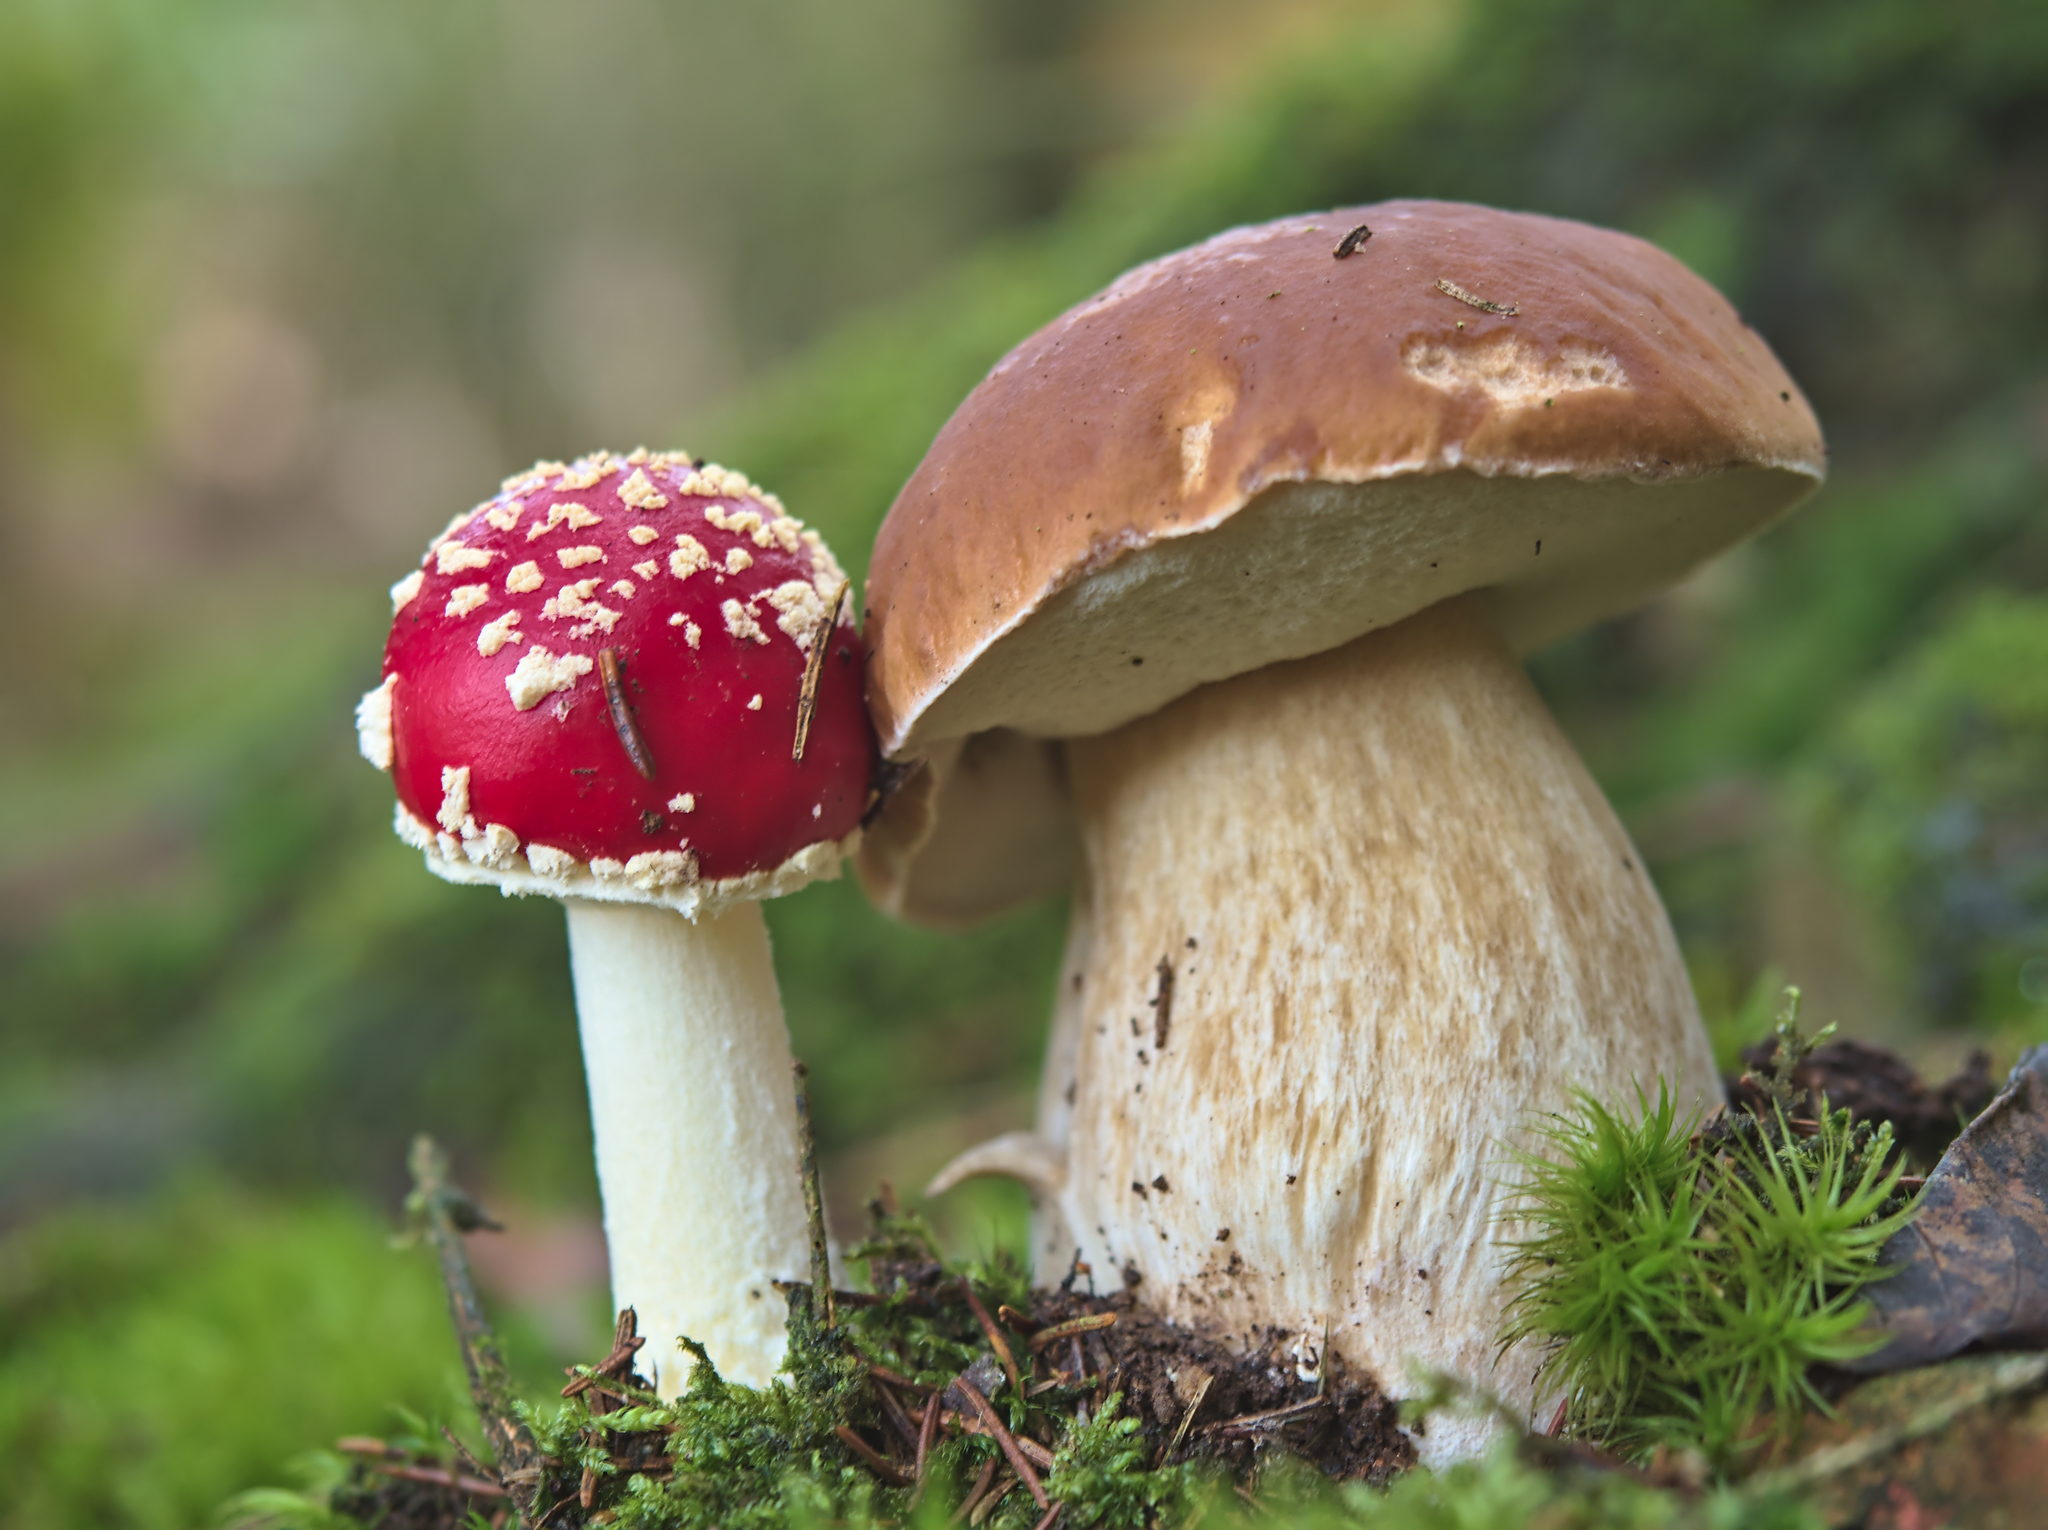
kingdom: Fungi
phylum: Basidiomycota
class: Agaricomycetes
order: Agaricales
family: Amanitaceae
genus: Amanita
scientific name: Amanita muscaria
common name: Fly agaric
